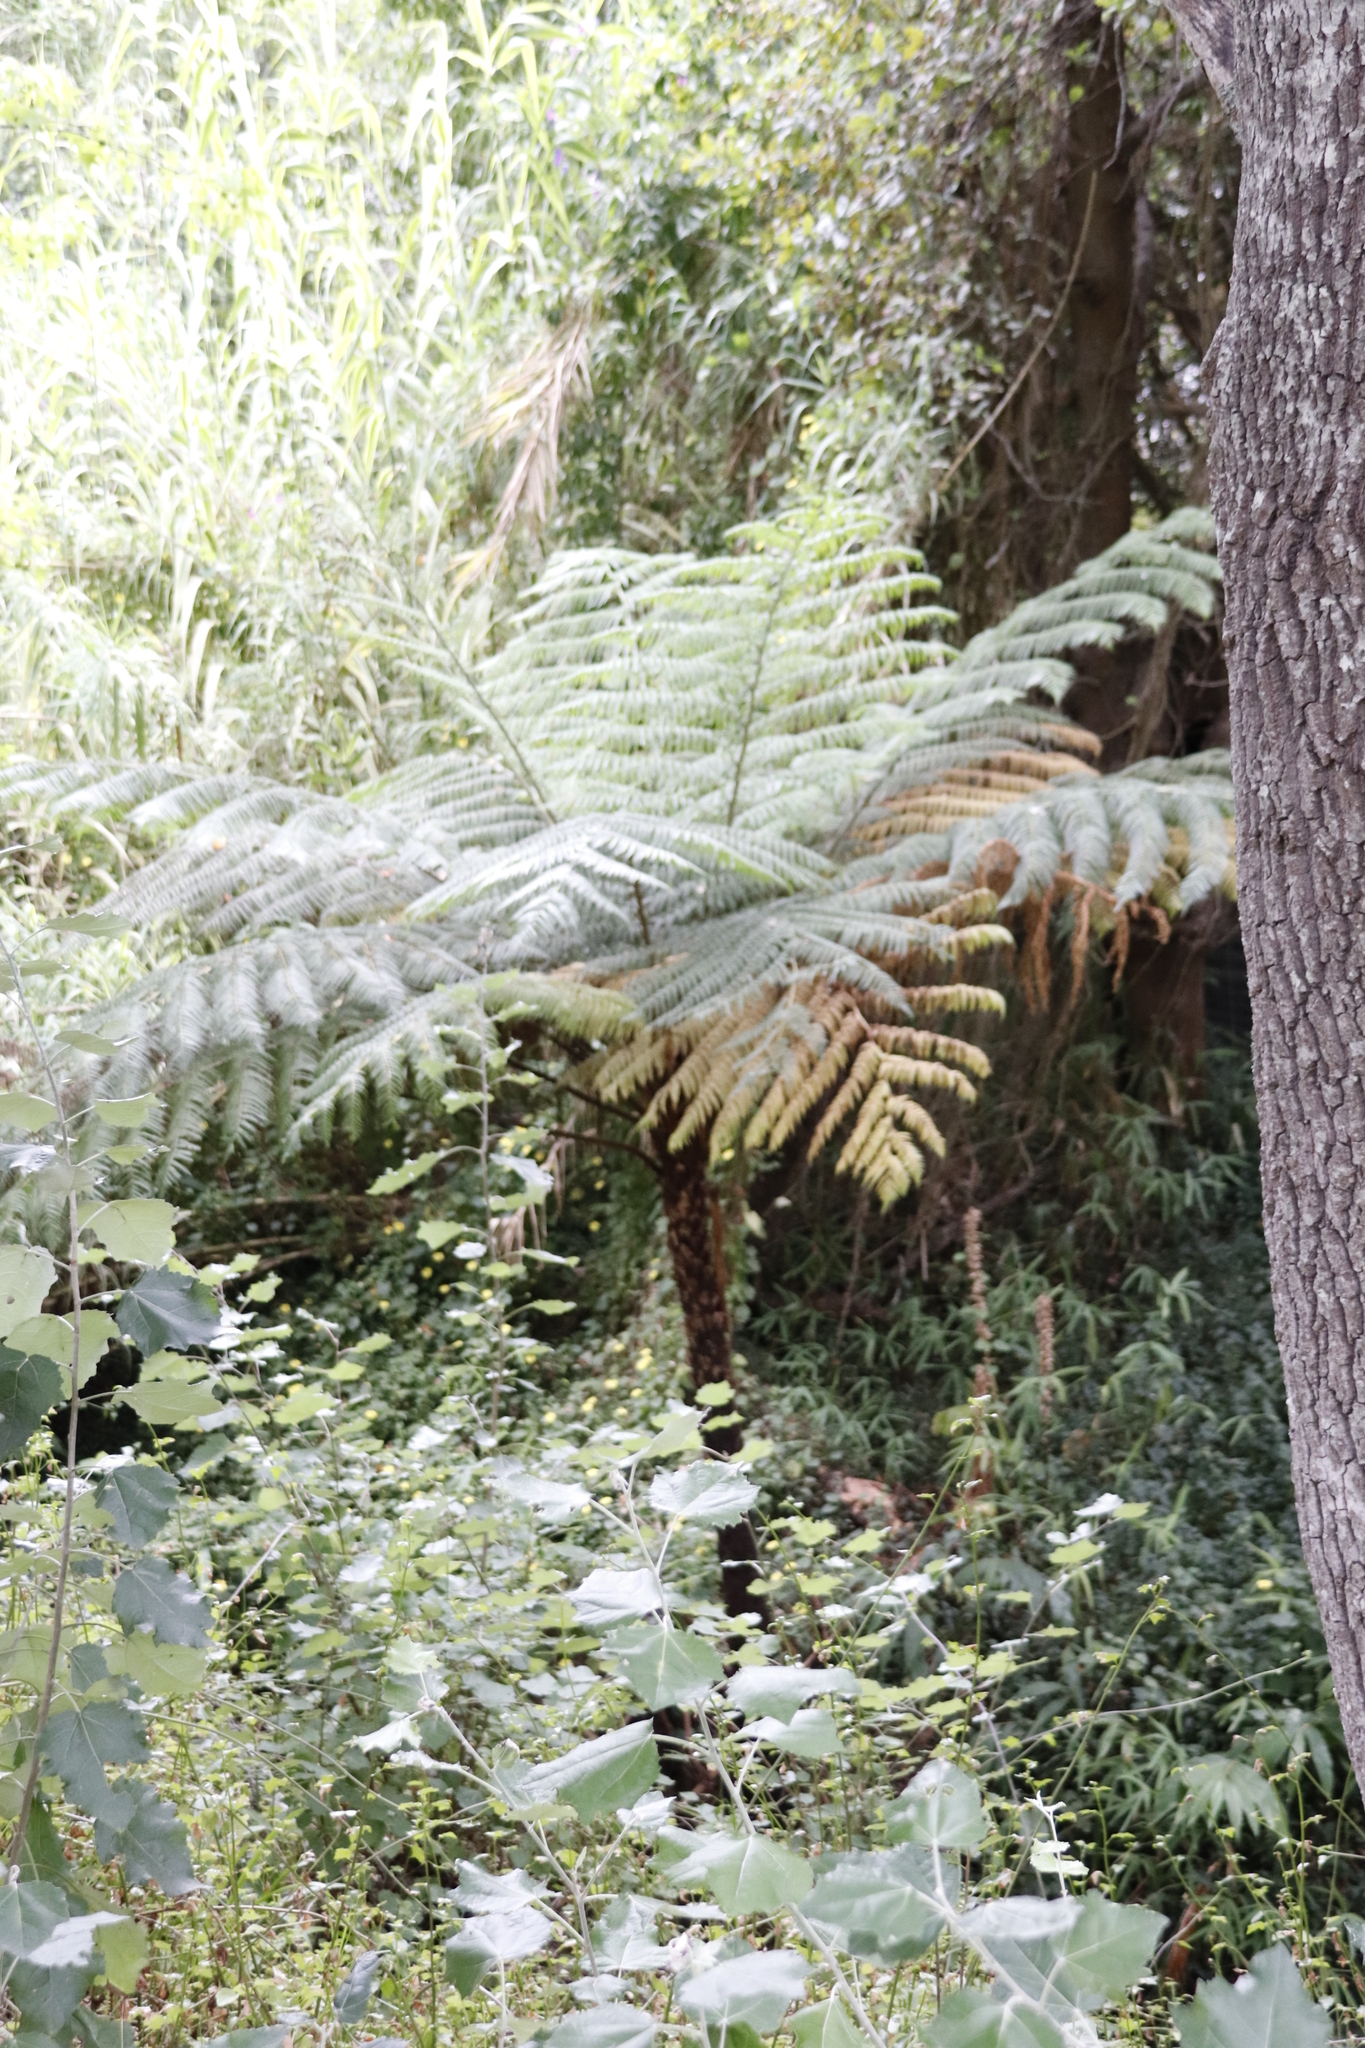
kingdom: Plantae
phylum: Tracheophyta
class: Polypodiopsida
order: Cyatheales
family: Cyatheaceae
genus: Sphaeropteris
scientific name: Sphaeropteris cooperi
